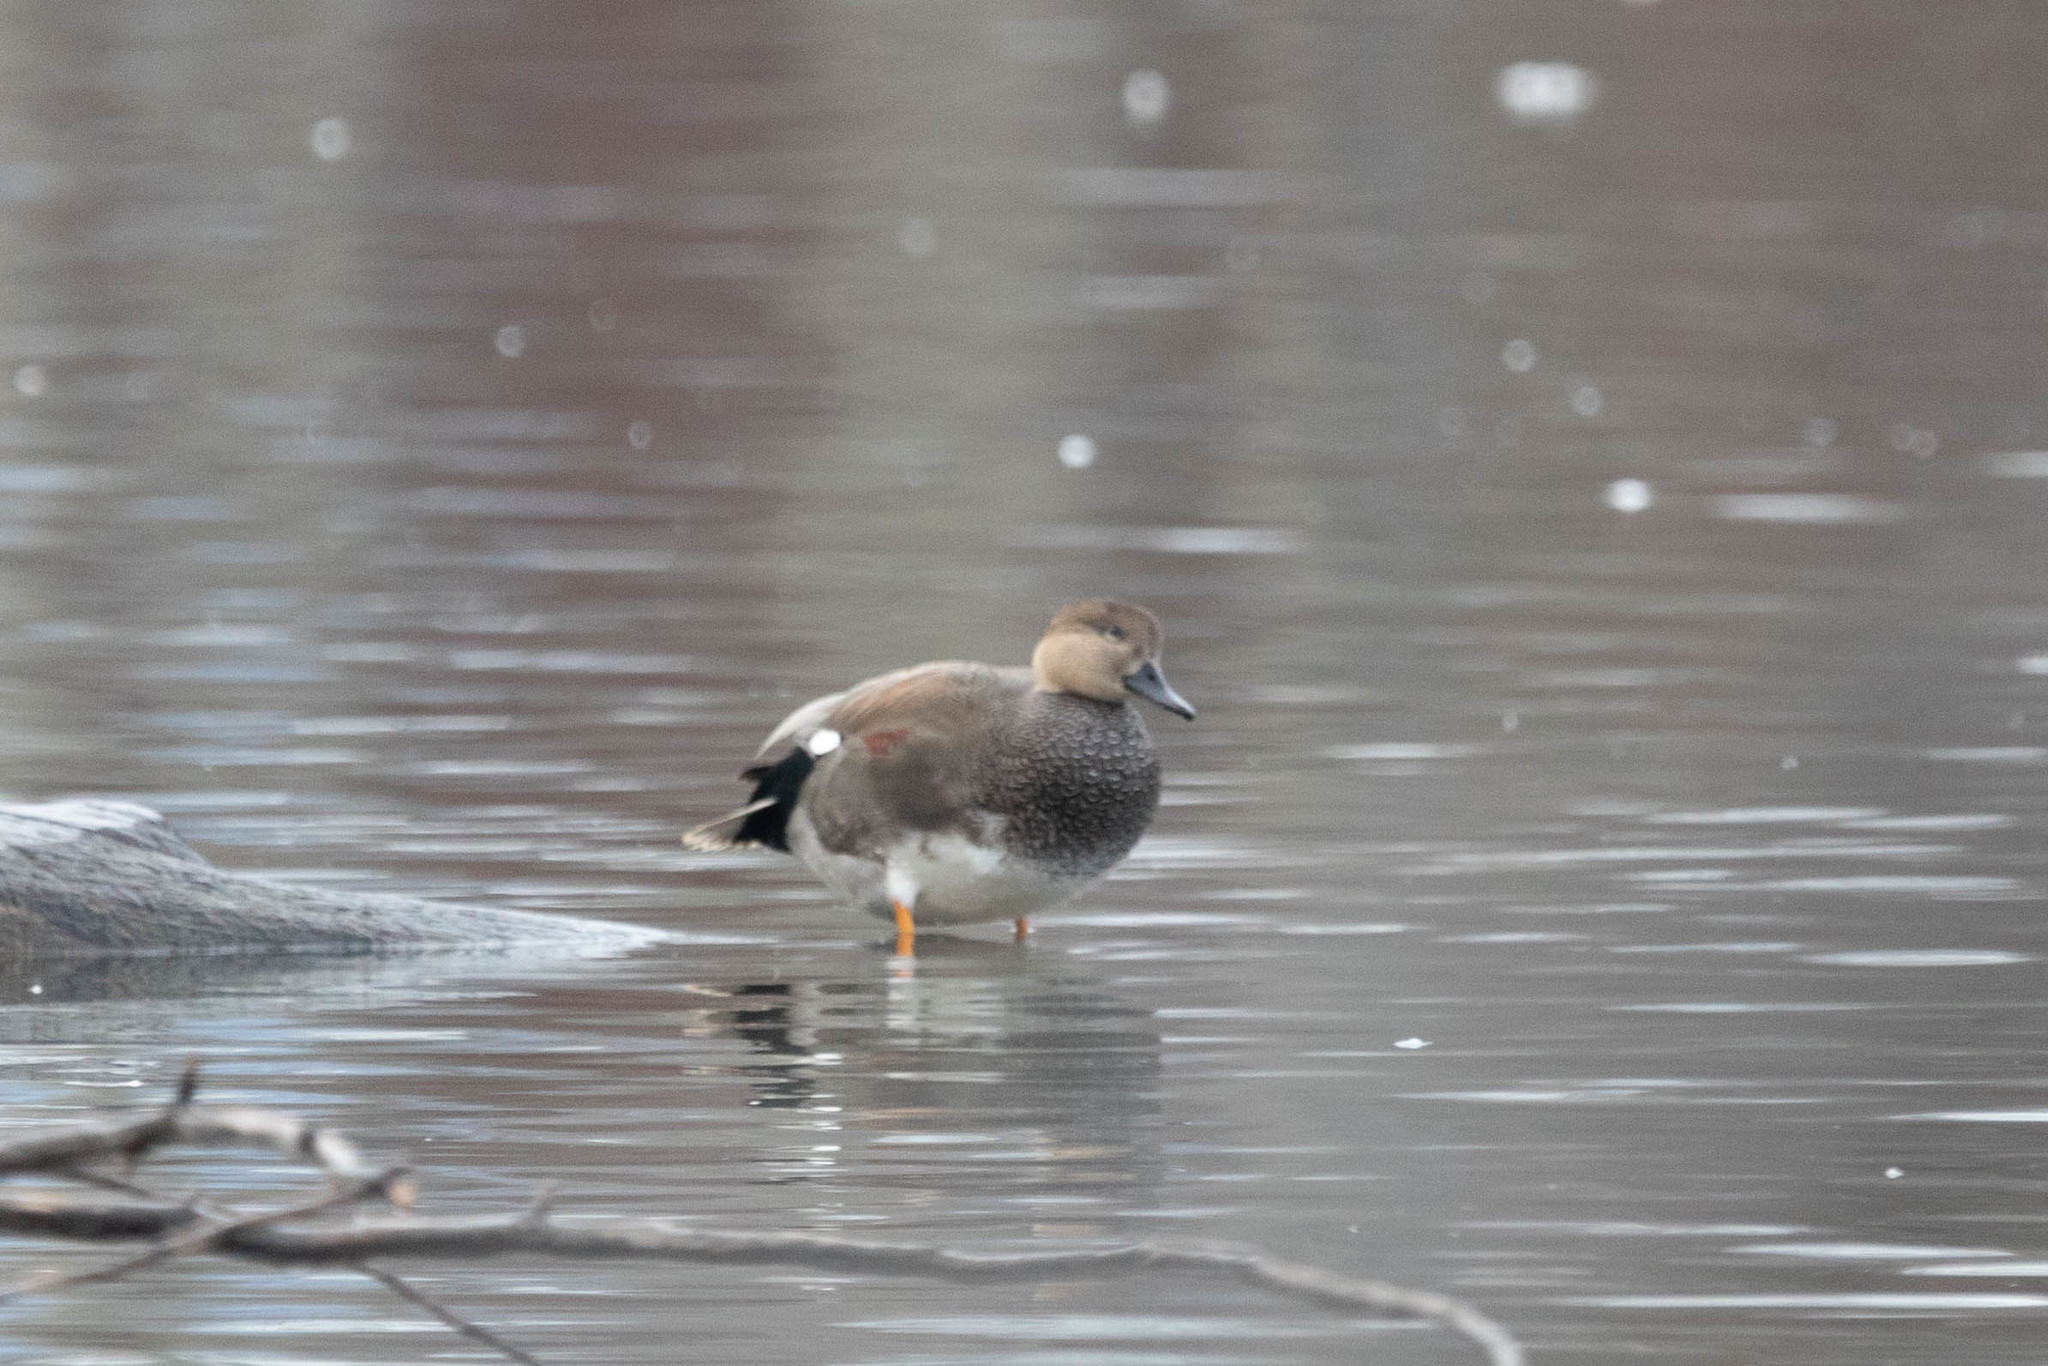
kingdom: Animalia
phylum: Chordata
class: Aves
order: Anseriformes
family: Anatidae
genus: Mareca
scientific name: Mareca strepera
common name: Gadwall
